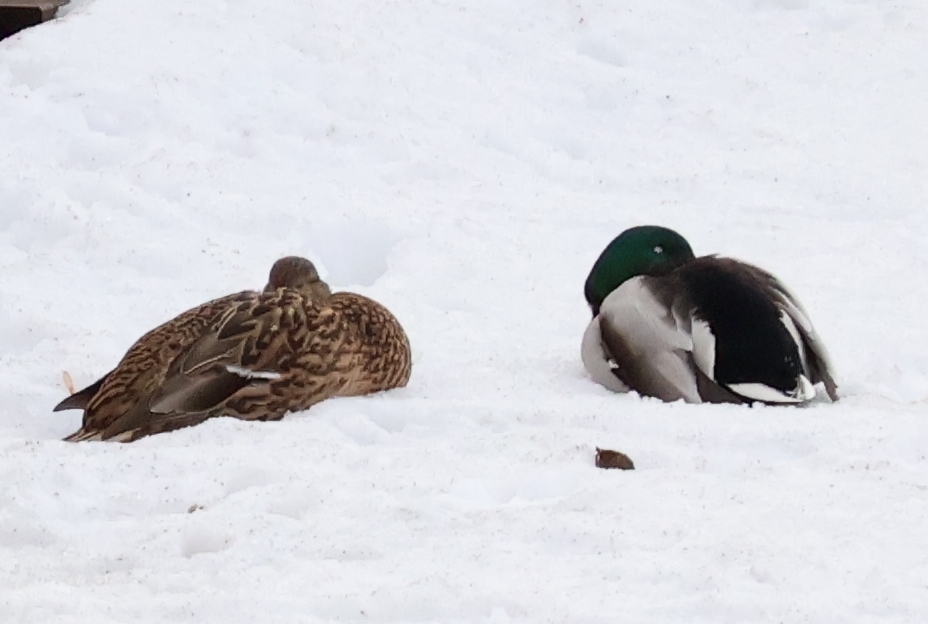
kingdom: Animalia
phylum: Chordata
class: Aves
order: Anseriformes
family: Anatidae
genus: Anas
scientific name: Anas platyrhynchos
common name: Mallard
